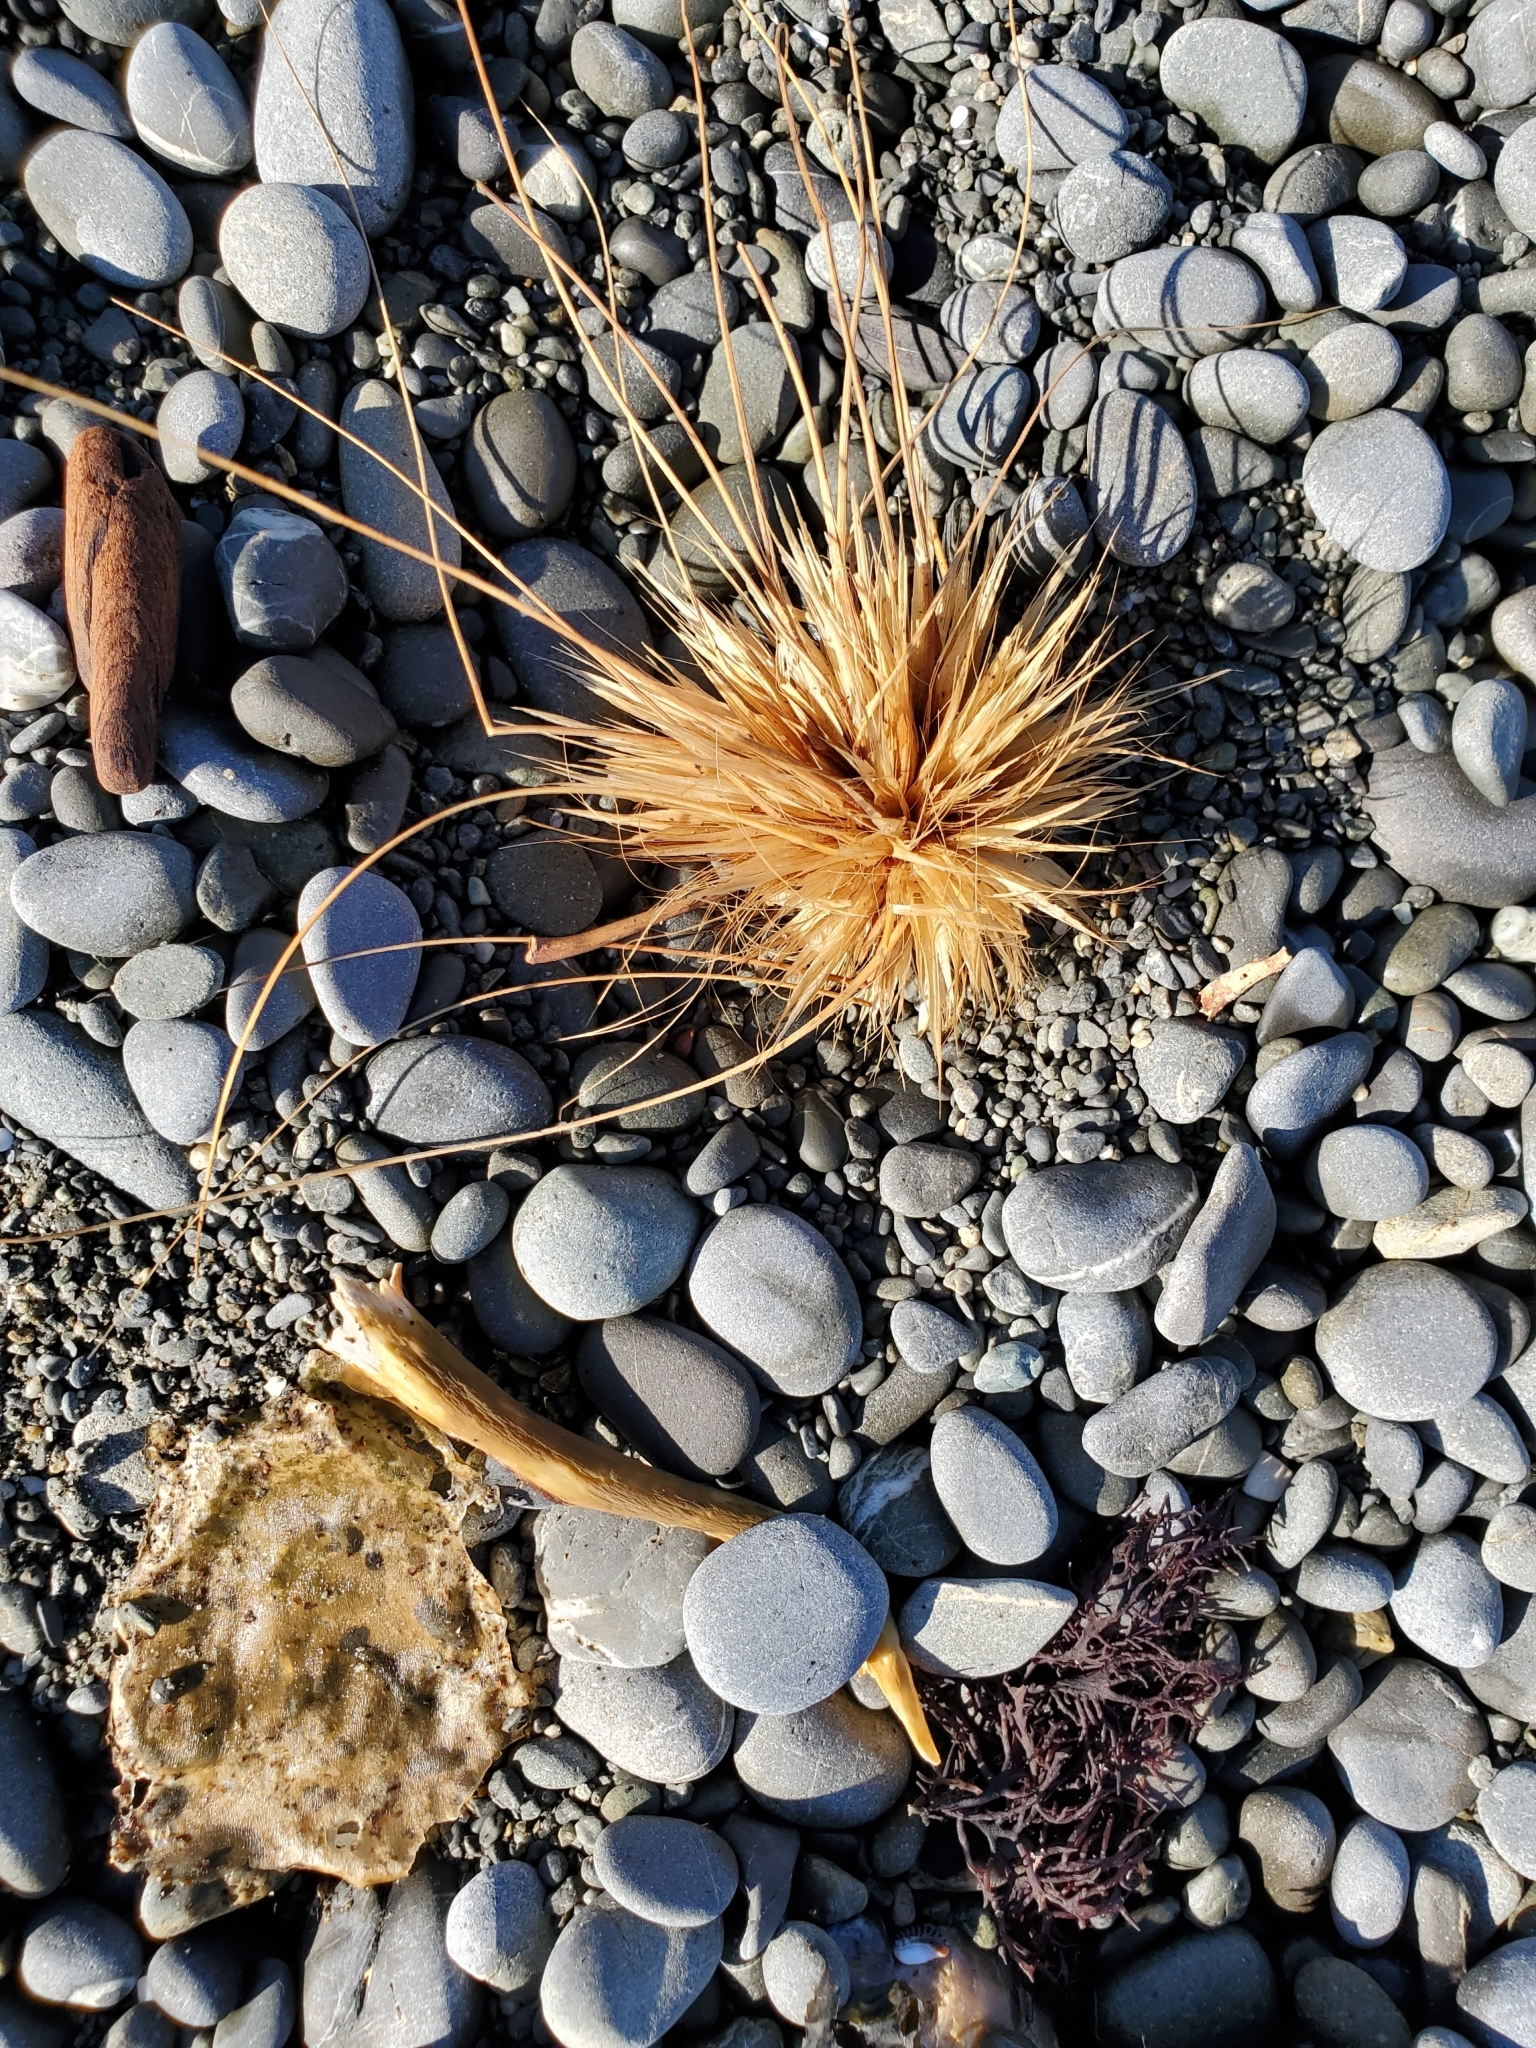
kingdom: Plantae
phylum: Tracheophyta
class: Liliopsida
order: Poales
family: Poaceae
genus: Spinifex
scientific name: Spinifex sericeus
